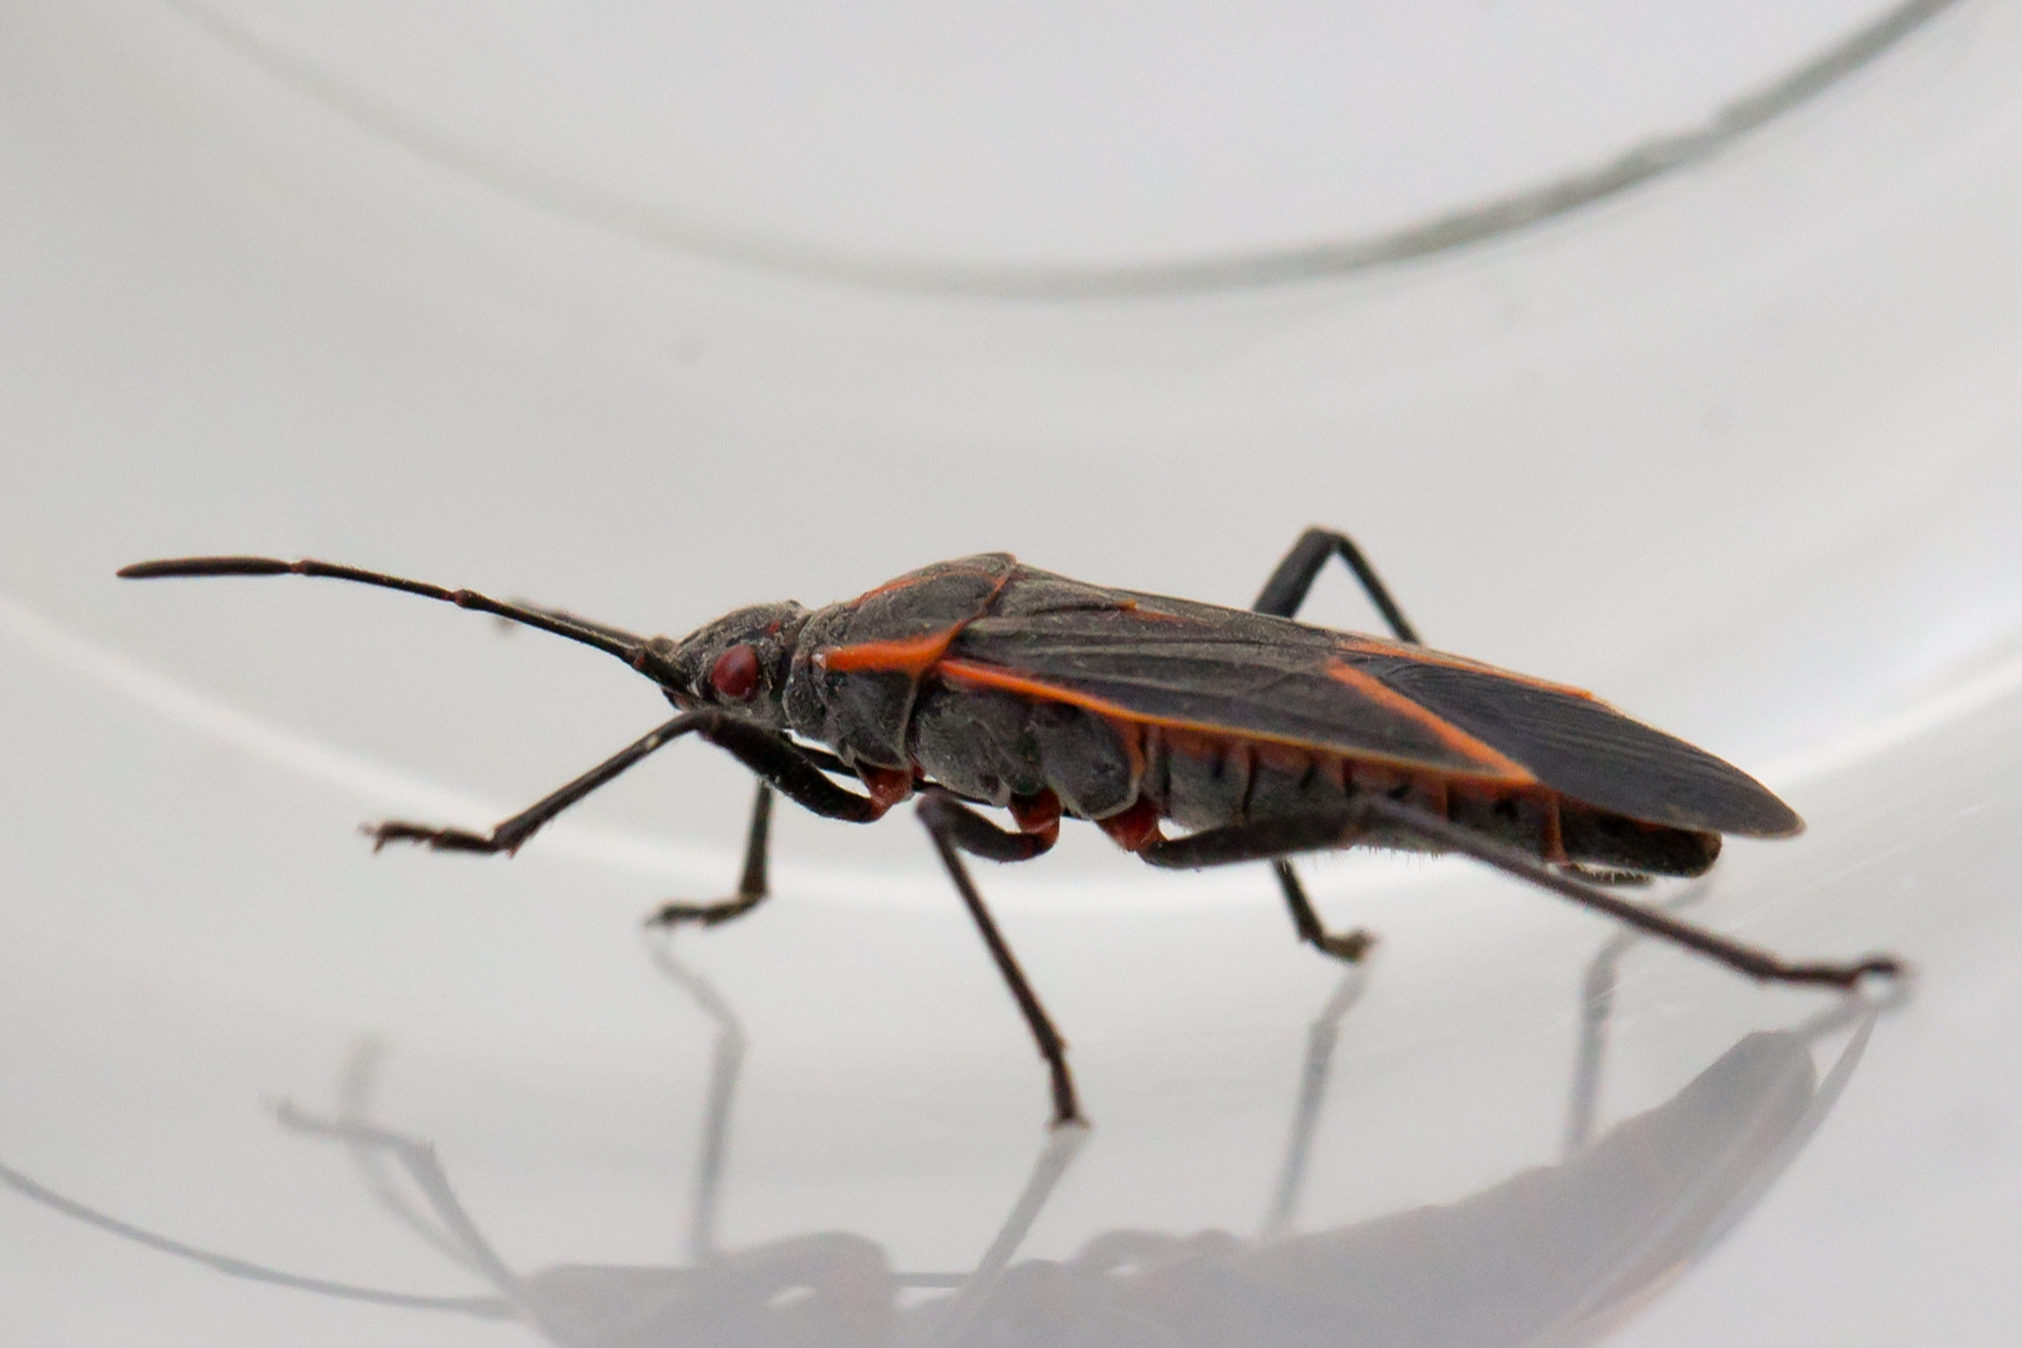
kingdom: Animalia
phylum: Arthropoda
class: Insecta
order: Hemiptera
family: Rhopalidae
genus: Boisea
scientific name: Boisea trivittata
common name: Boxelder bug
